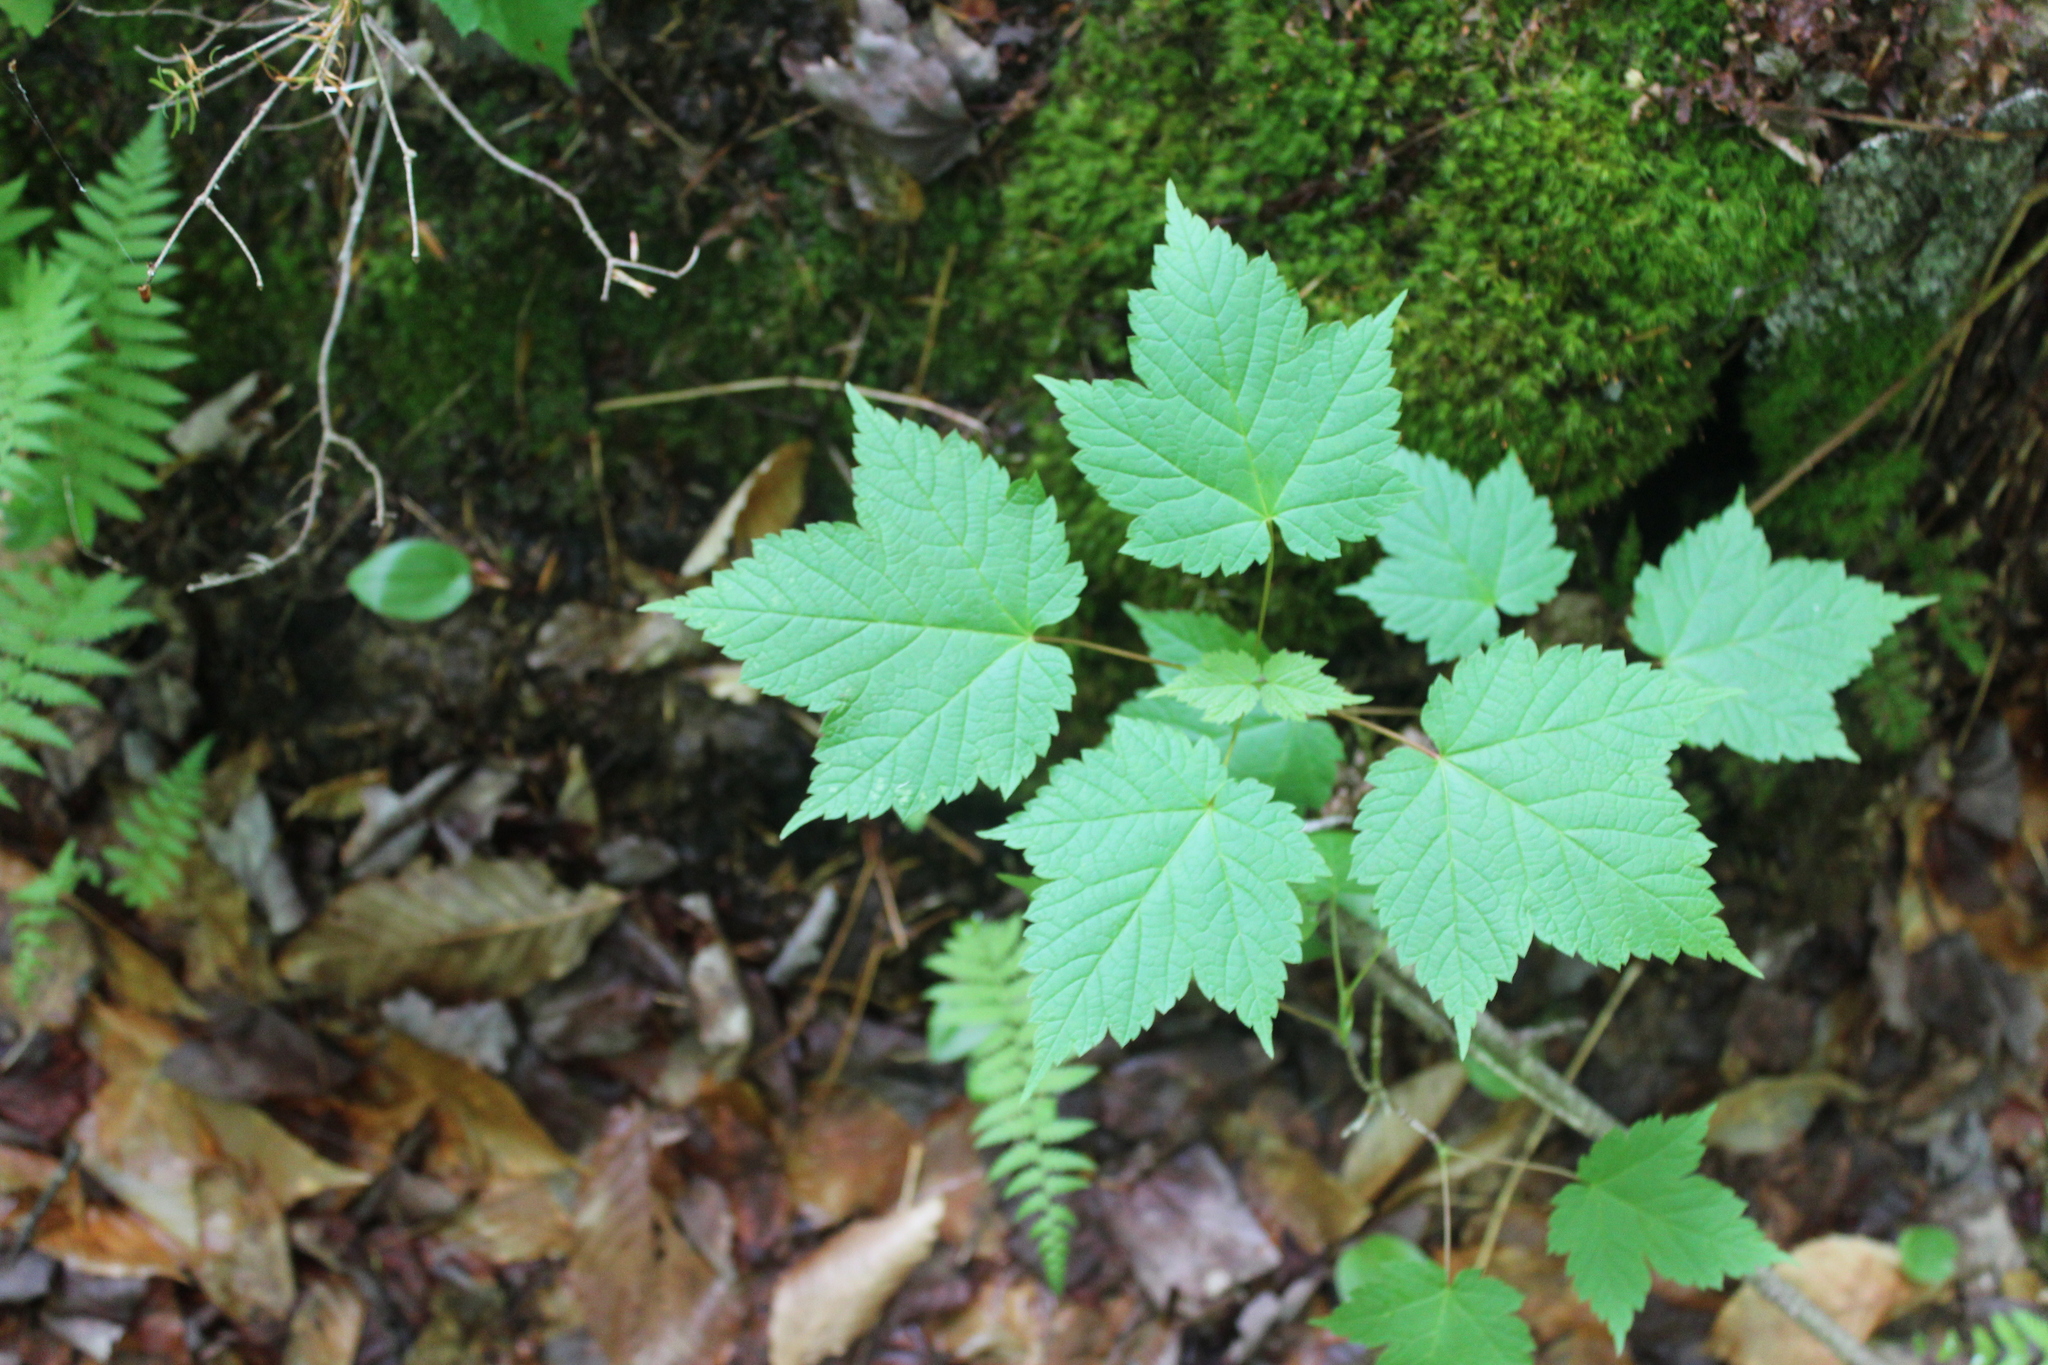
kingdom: Plantae
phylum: Tracheophyta
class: Magnoliopsida
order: Sapindales
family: Sapindaceae
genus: Acer
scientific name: Acer spicatum
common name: Mountain maple
